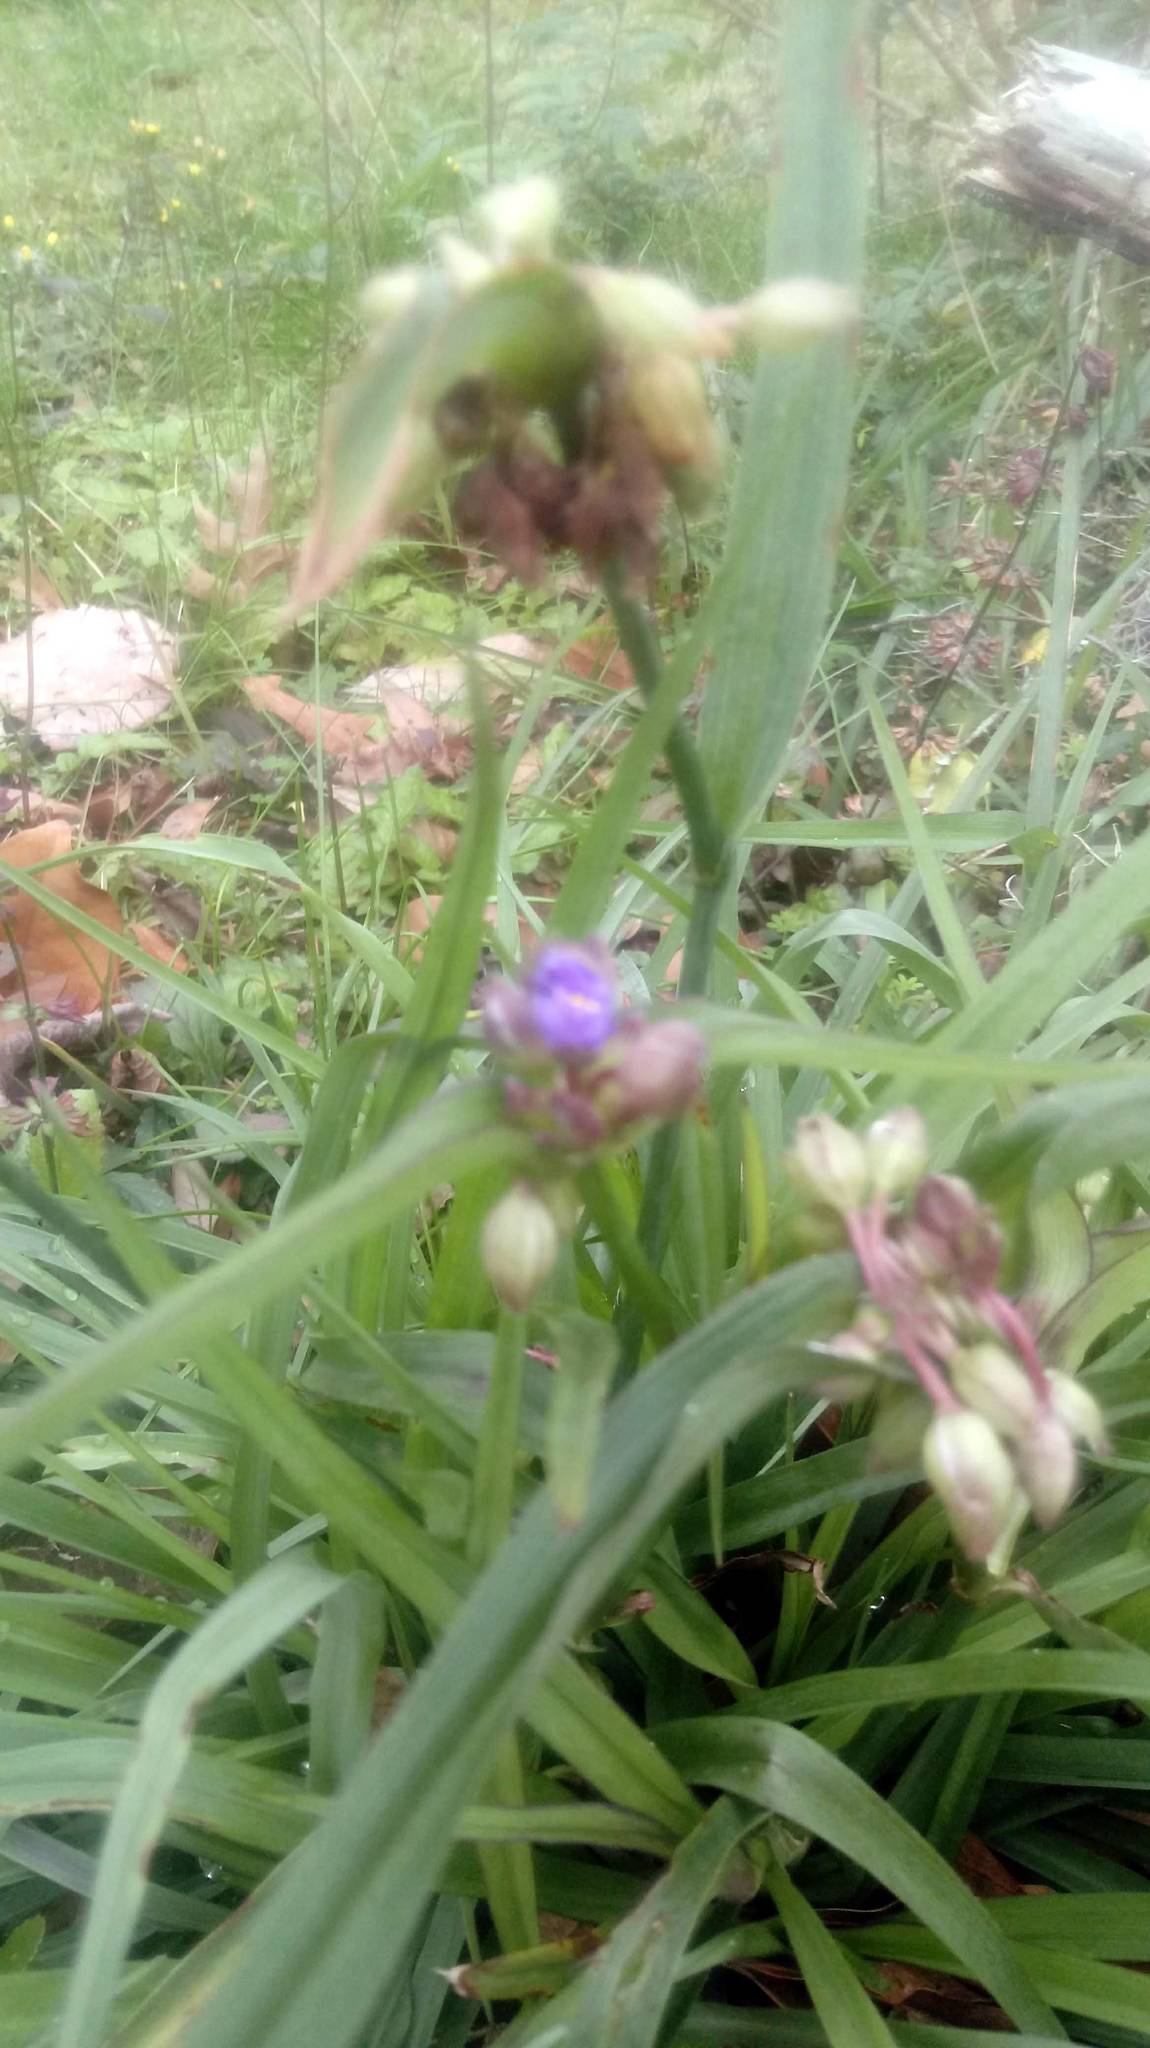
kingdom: Plantae
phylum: Tracheophyta
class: Liliopsida
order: Commelinales
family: Commelinaceae
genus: Tradescantia
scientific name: Tradescantia ohiensis
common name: Ohio spiderwort
